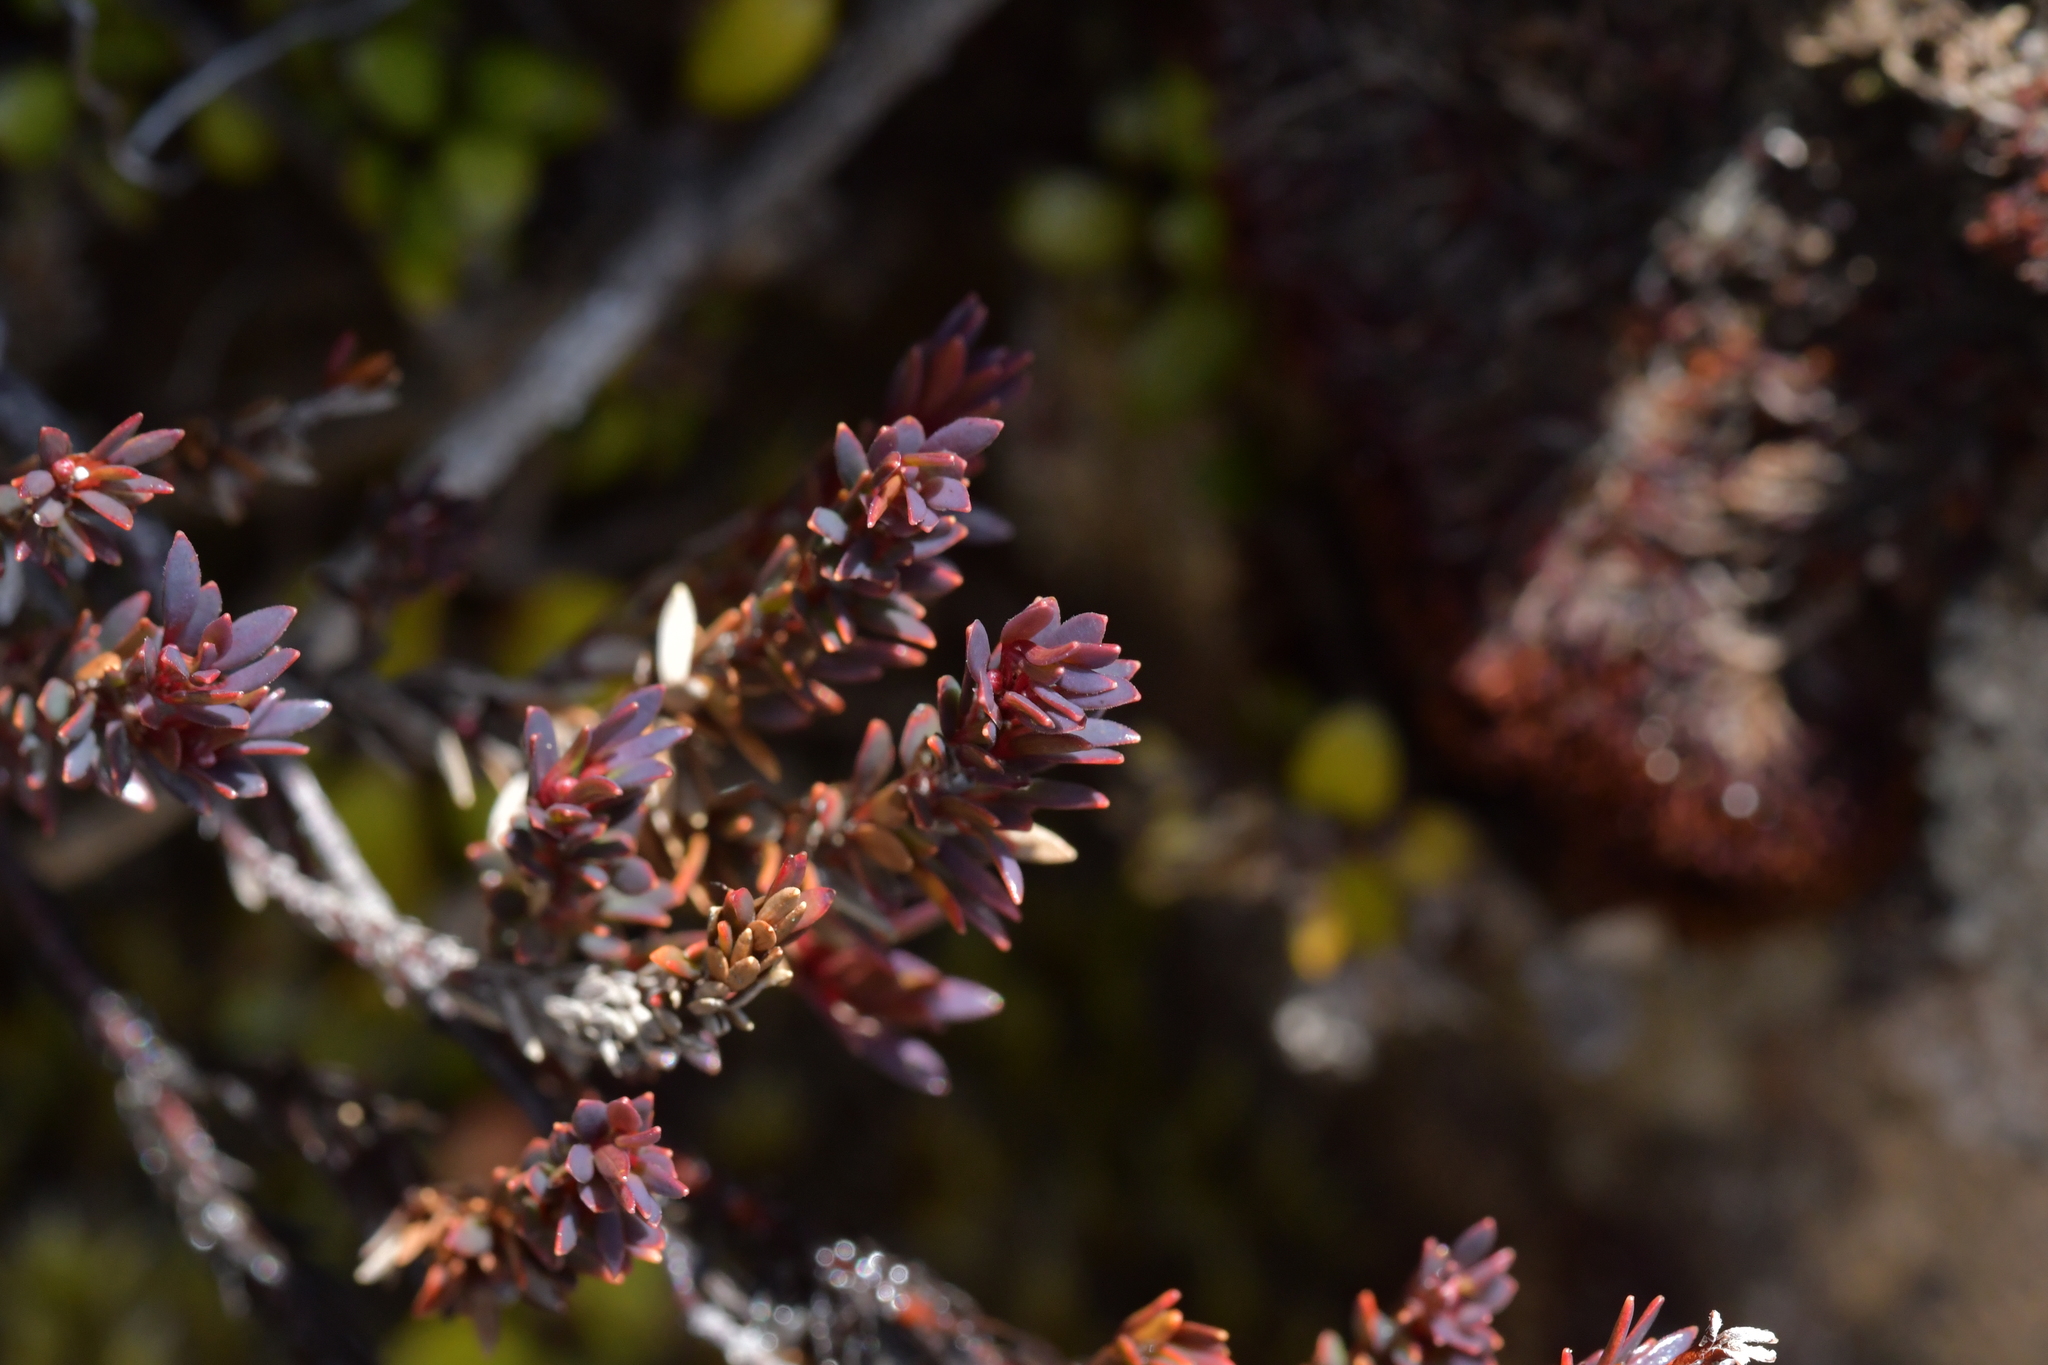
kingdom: Plantae
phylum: Tracheophyta
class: Magnoliopsida
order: Ericales
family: Ericaceae
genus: Acrothamnus
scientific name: Acrothamnus colensoi
